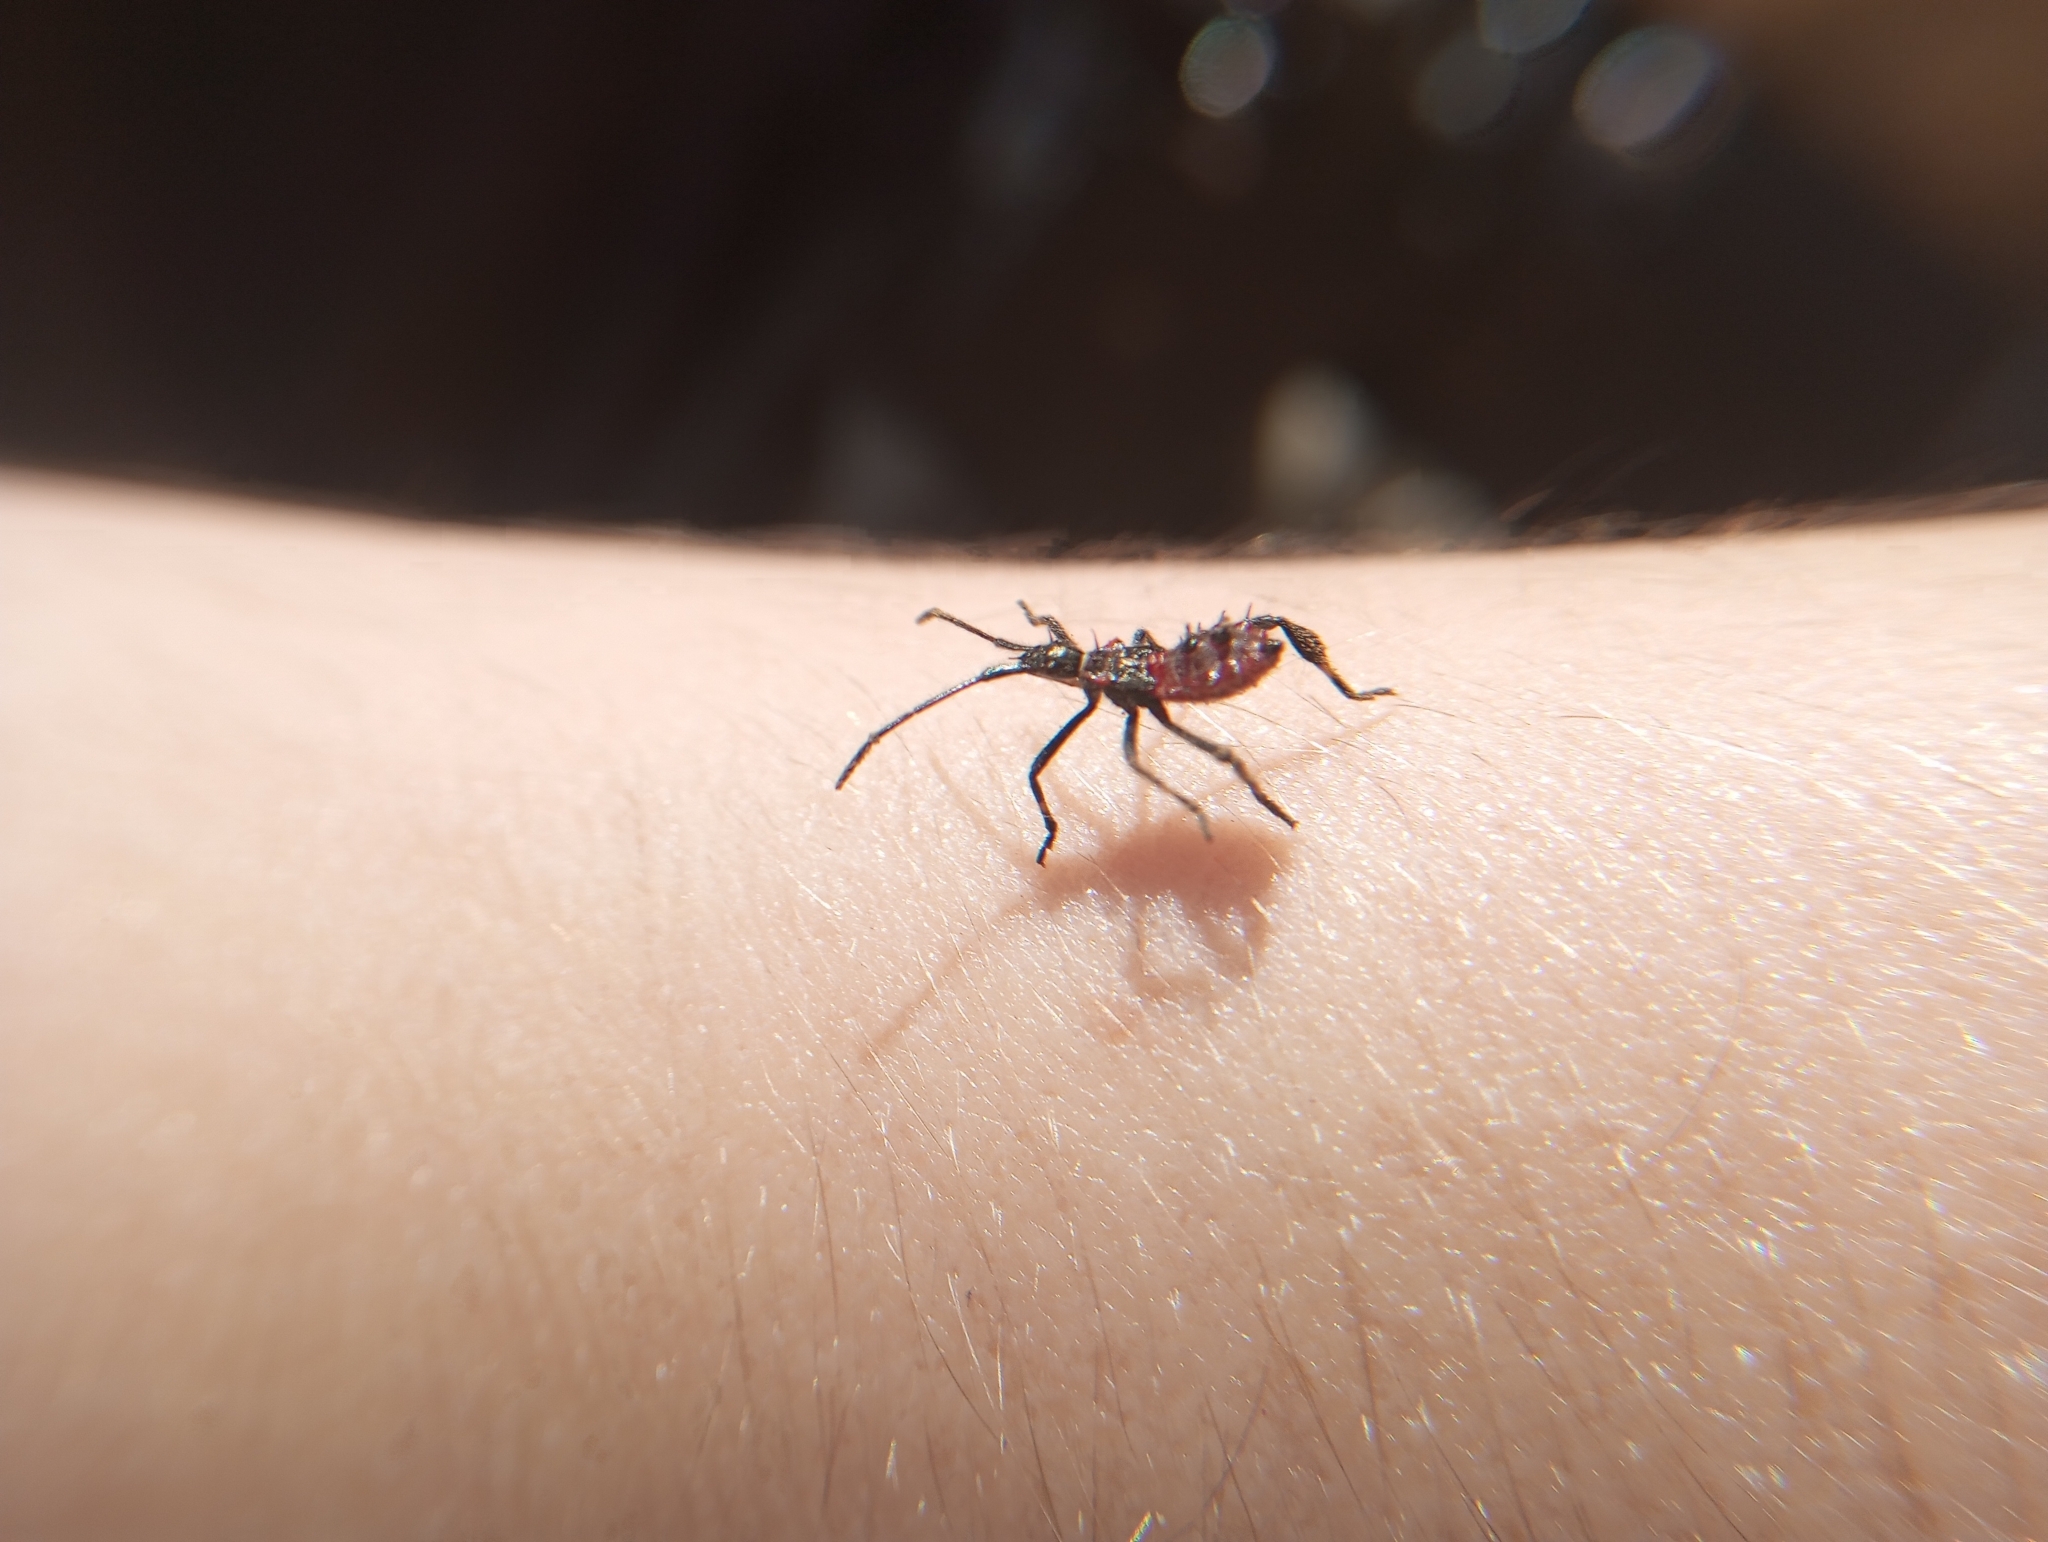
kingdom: Animalia
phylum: Arthropoda
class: Insecta
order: Hemiptera
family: Coreidae
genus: Leptoglossus
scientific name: Leptoglossus chilensis
